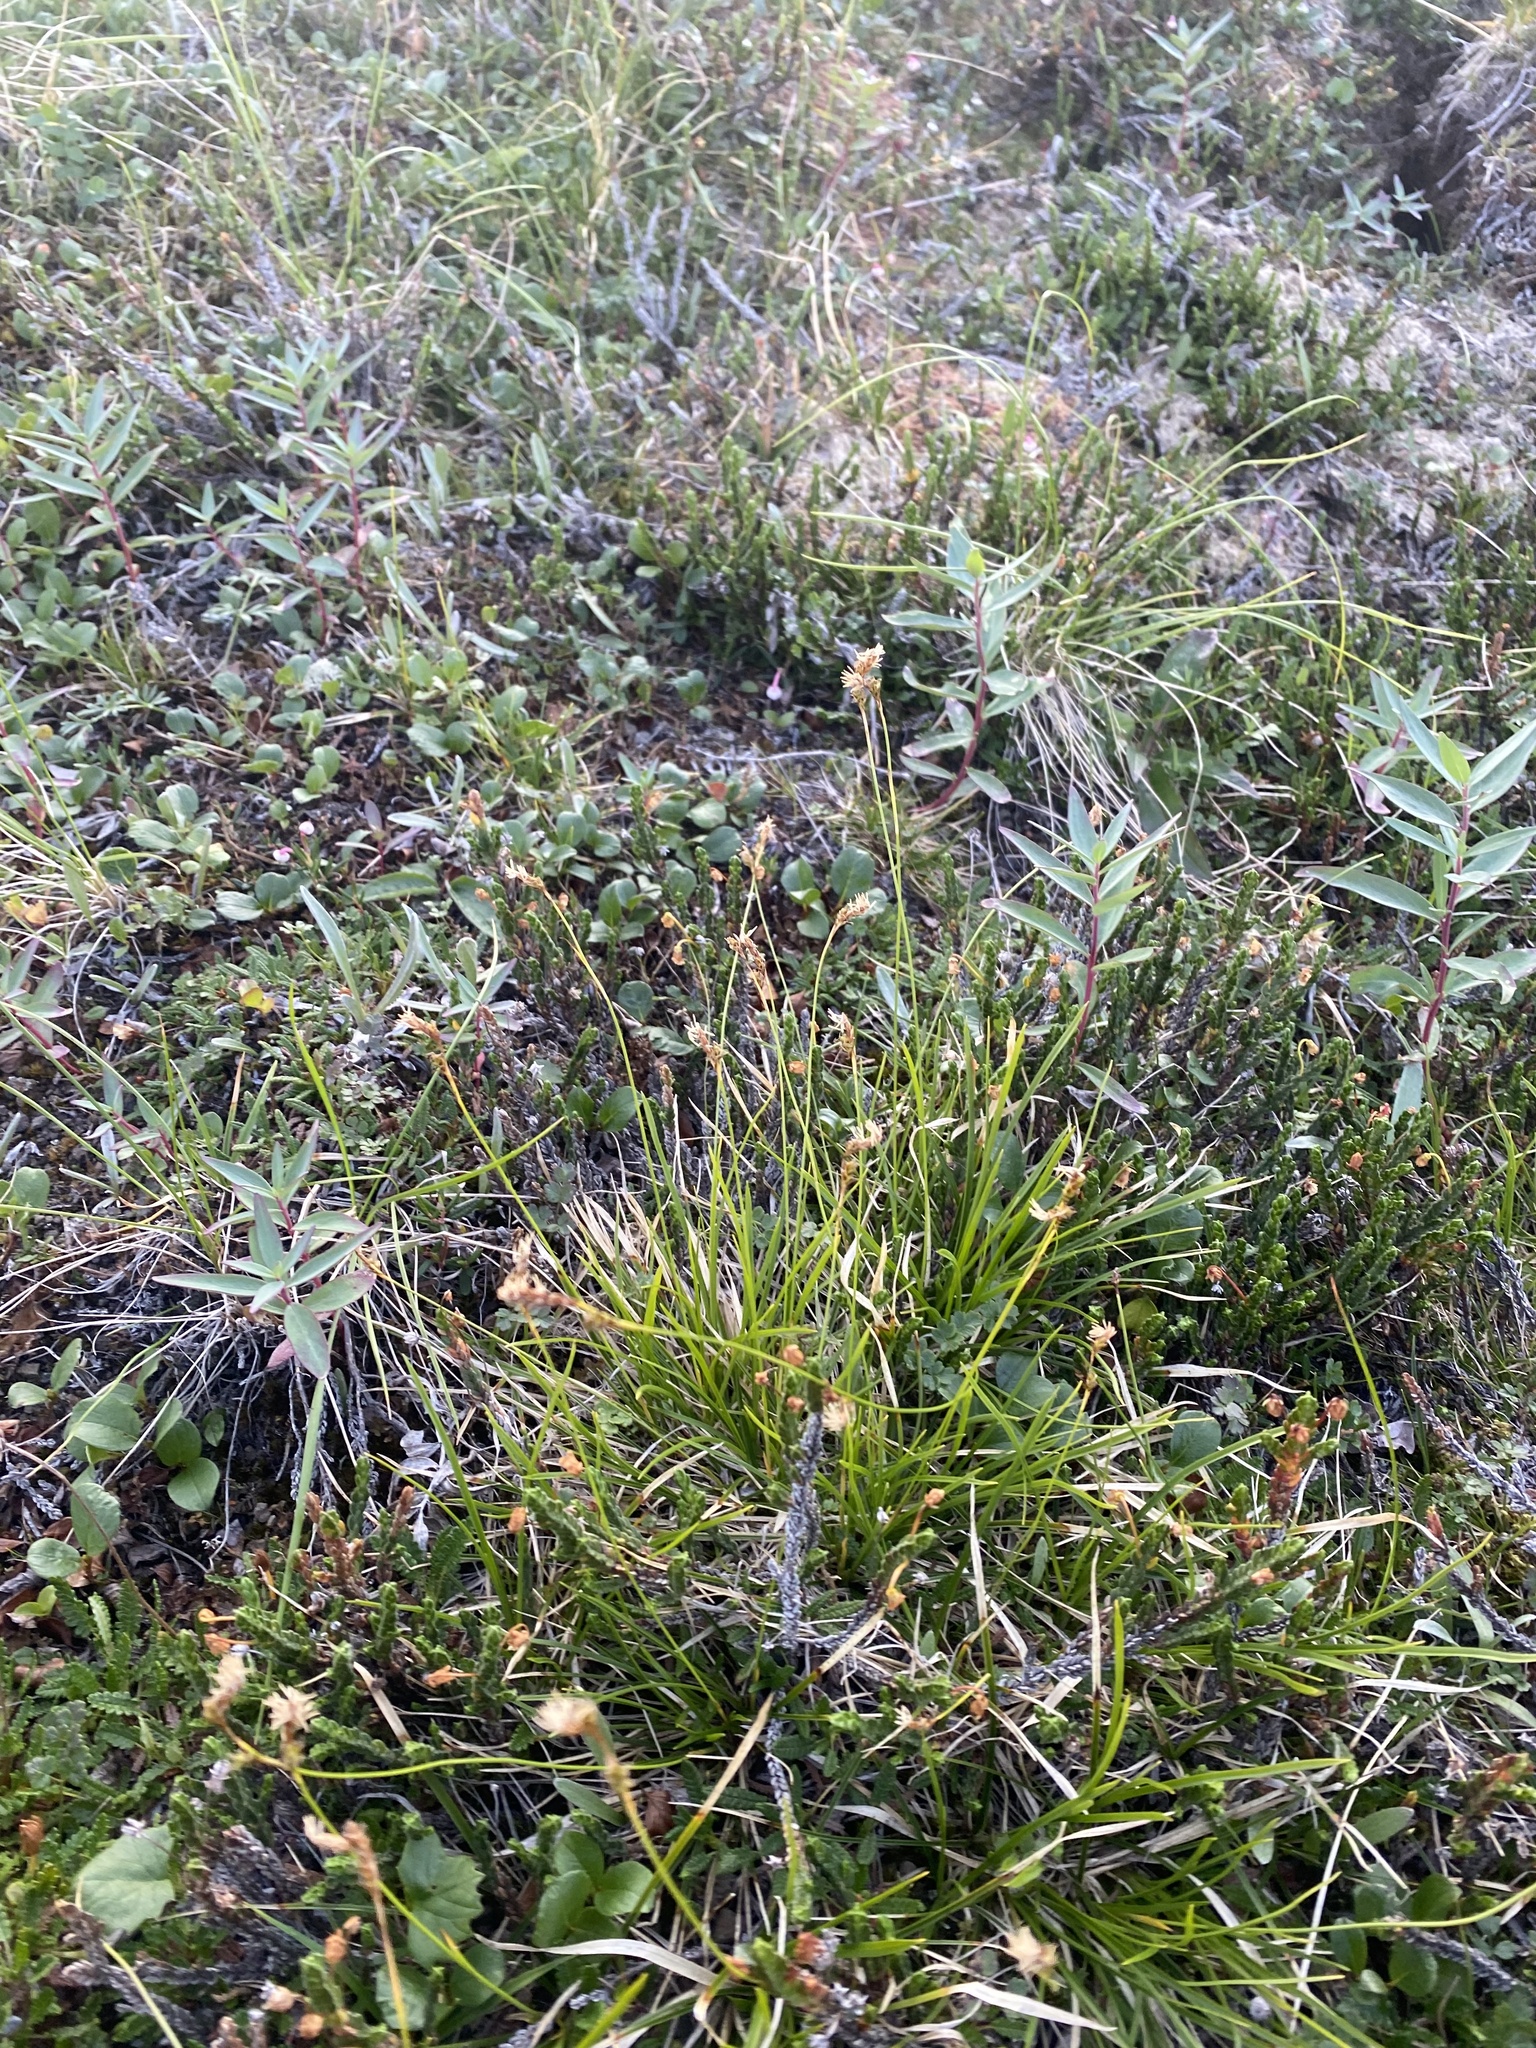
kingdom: Plantae
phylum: Tracheophyta
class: Liliopsida
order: Poales
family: Cyperaceae
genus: Carex
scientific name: Carex umbrosa
